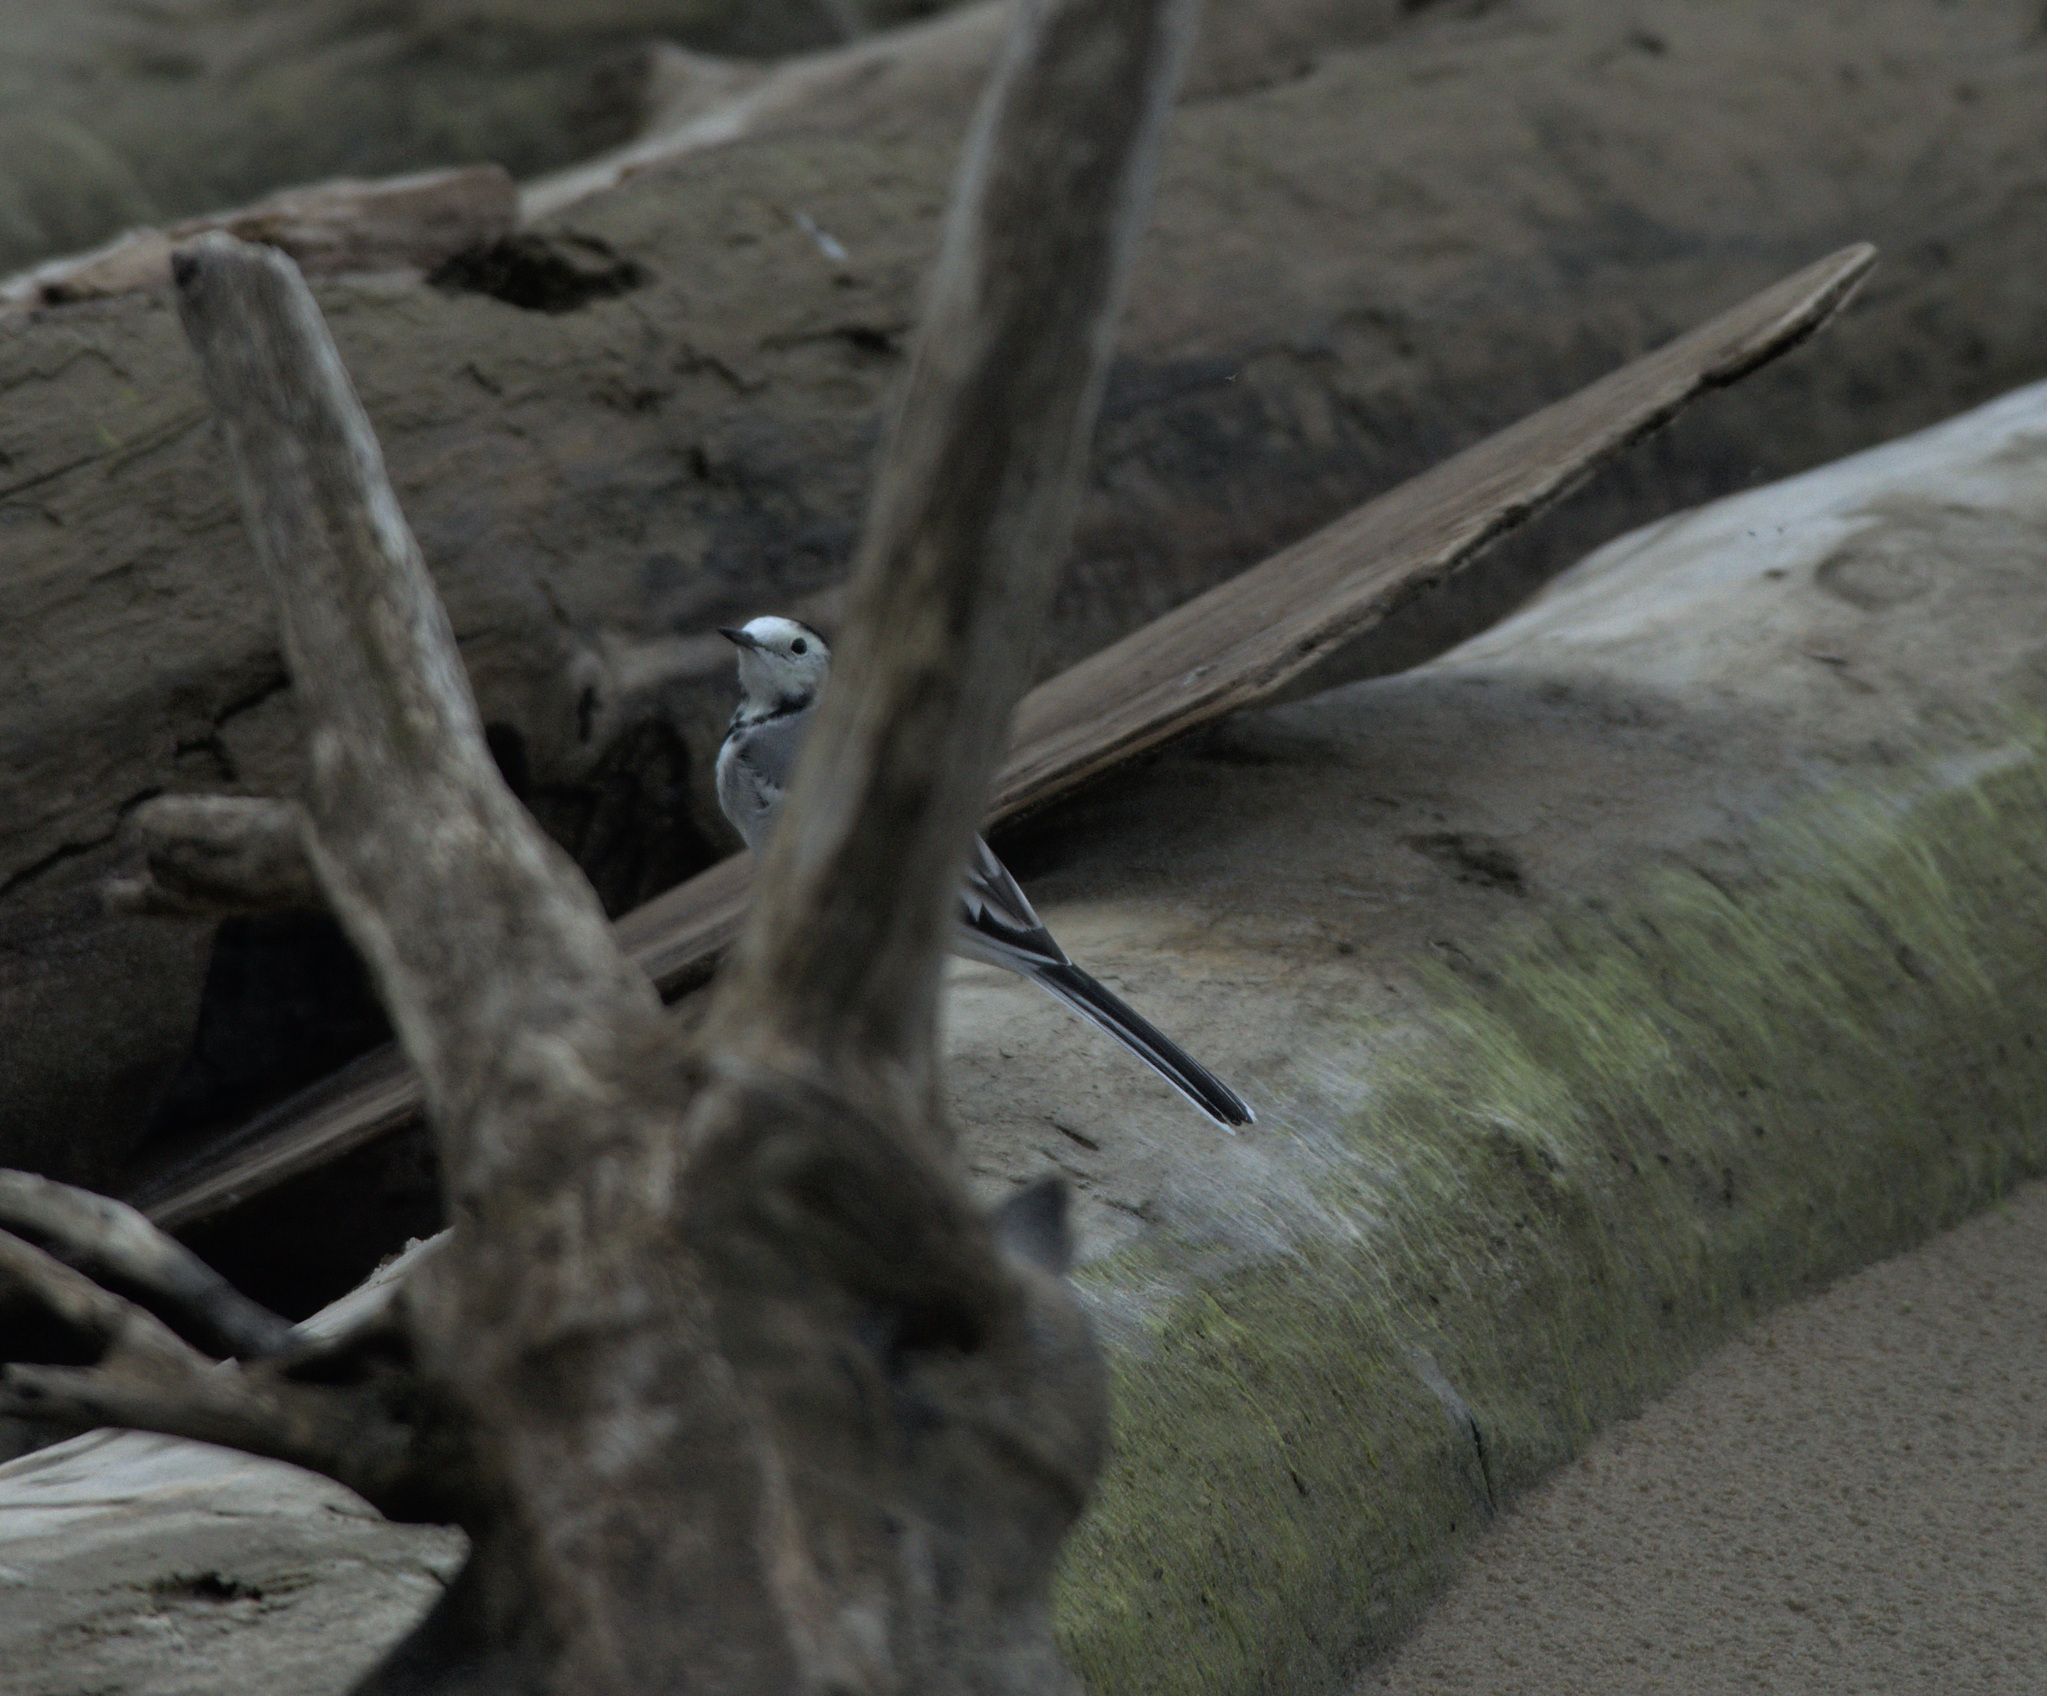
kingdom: Animalia
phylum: Chordata
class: Aves
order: Passeriformes
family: Motacillidae
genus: Motacilla
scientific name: Motacilla alba
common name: White wagtail
